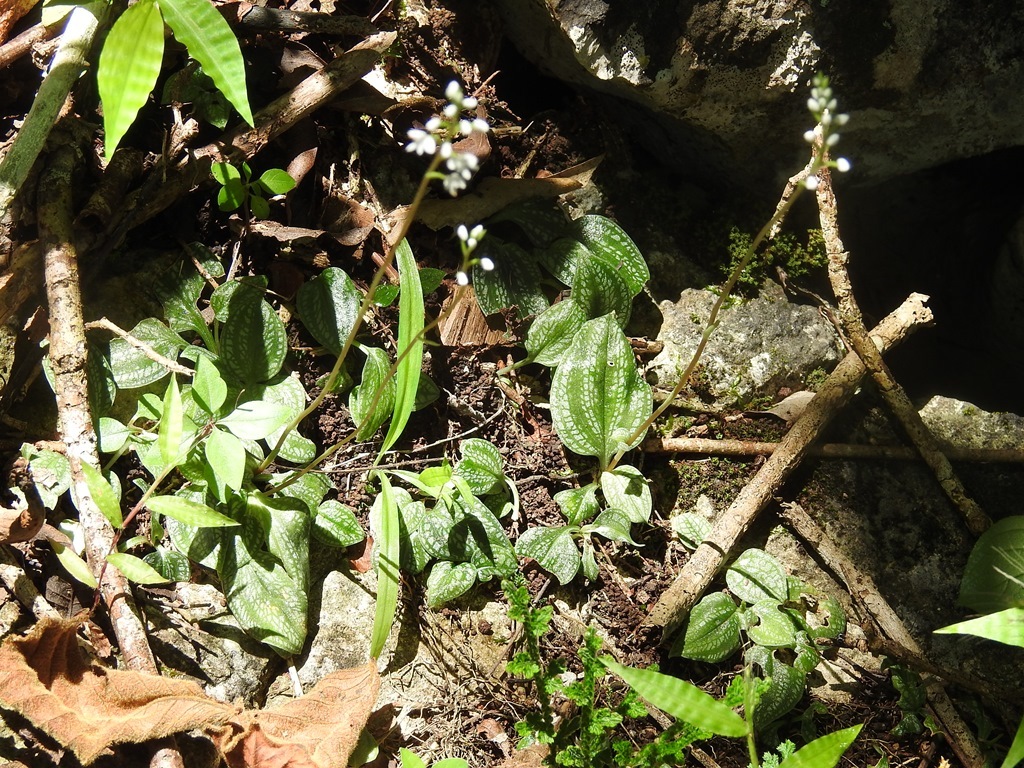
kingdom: Plantae
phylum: Tracheophyta
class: Liliopsida
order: Asparagales
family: Orchidaceae
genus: Cranichis
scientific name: Cranichis cochleata
